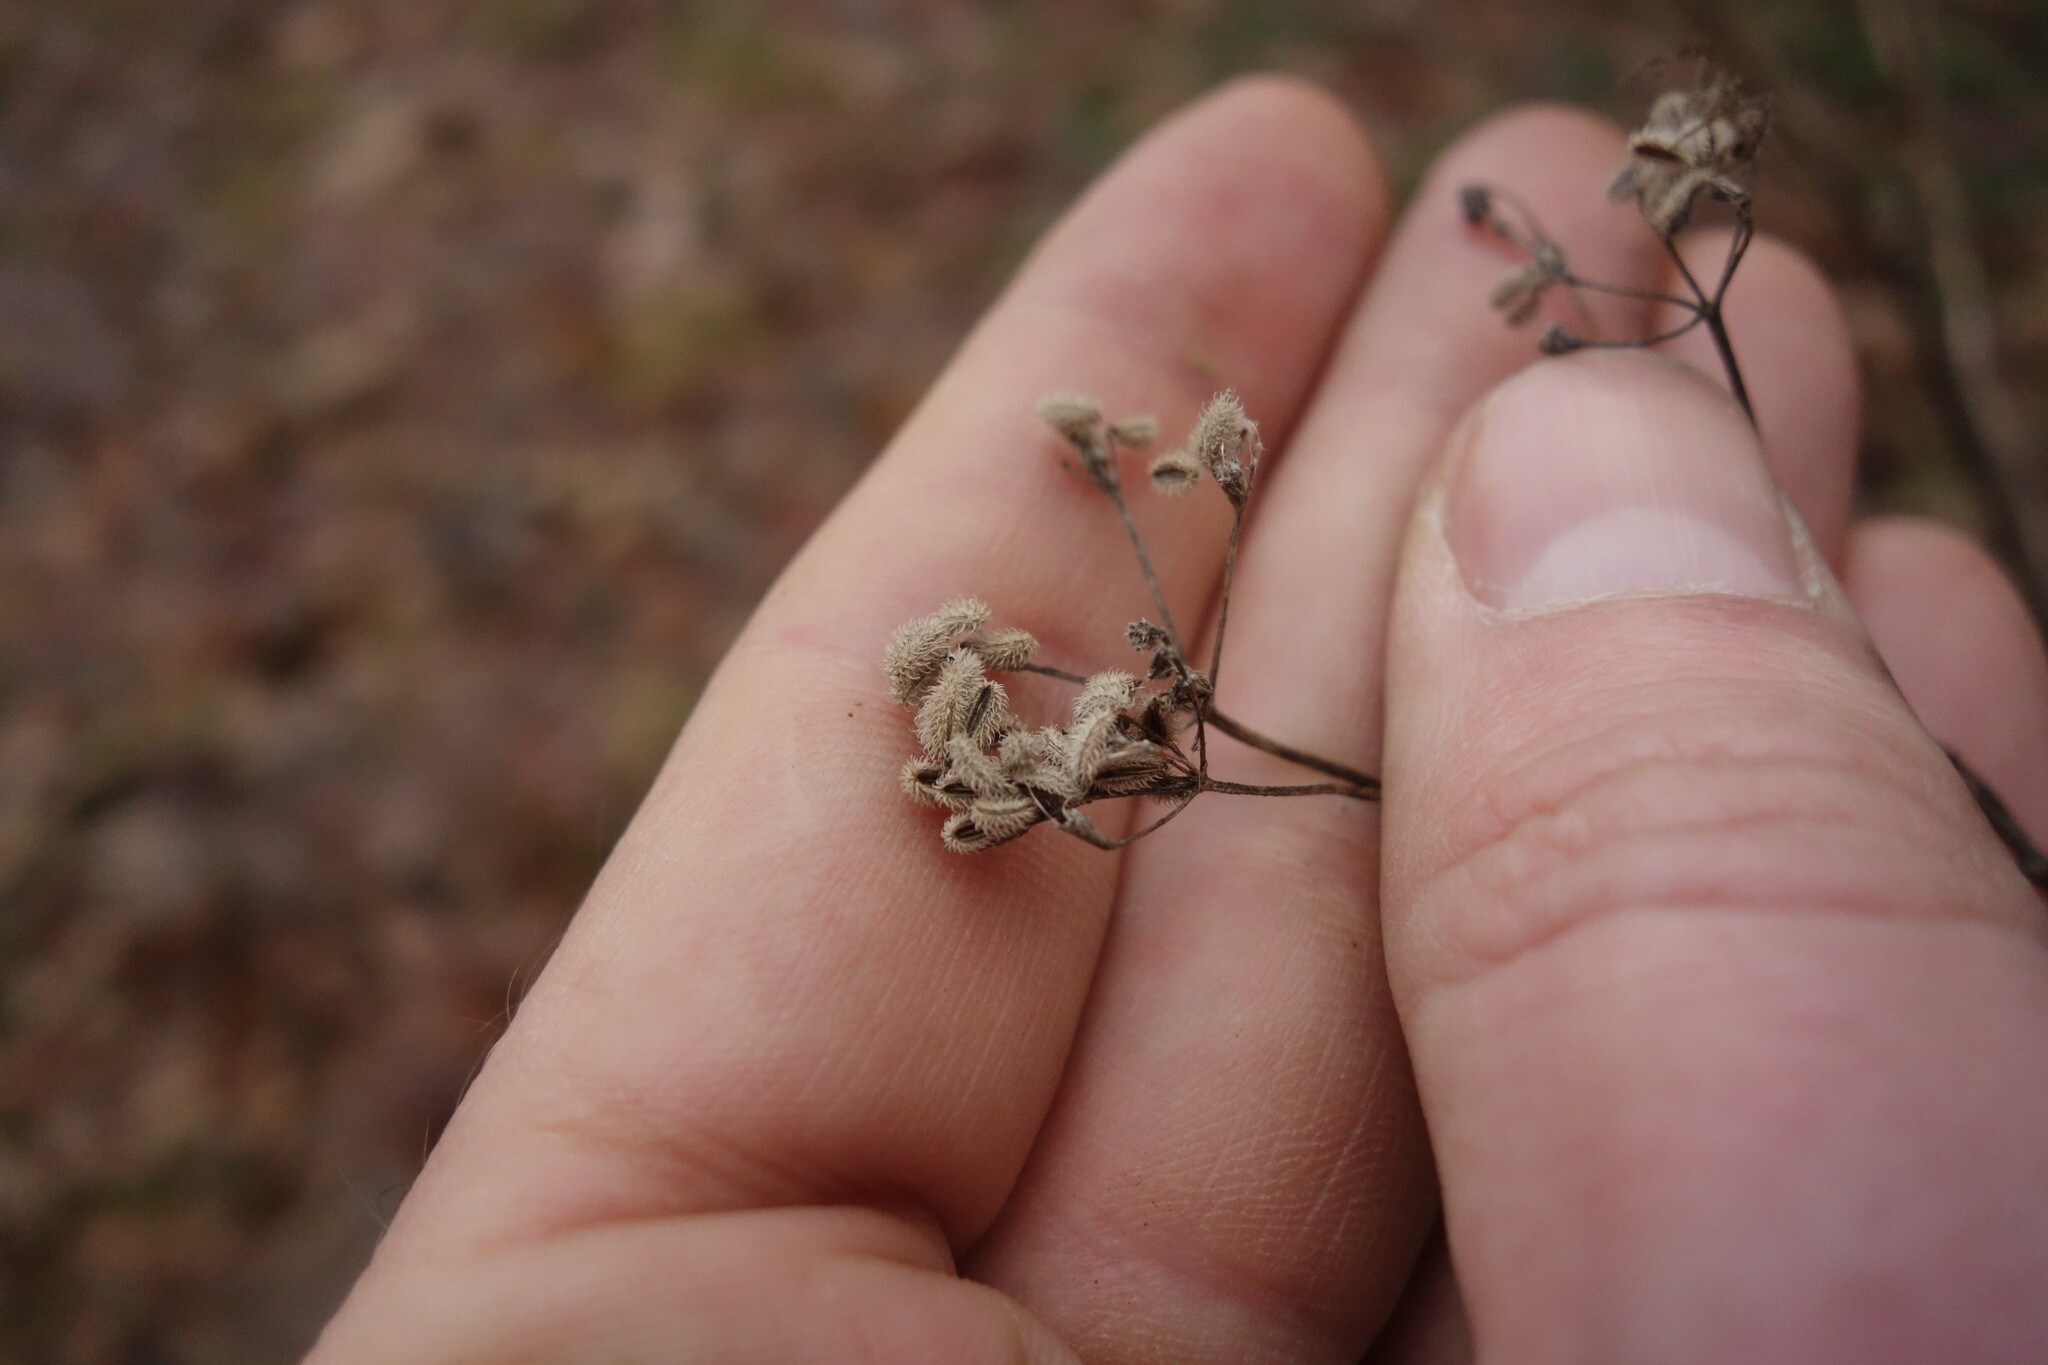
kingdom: Plantae
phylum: Tracheophyta
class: Magnoliopsida
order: Apiales
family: Apiaceae
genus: Torilis
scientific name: Torilis japonica
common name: Upright hedge-parsley
